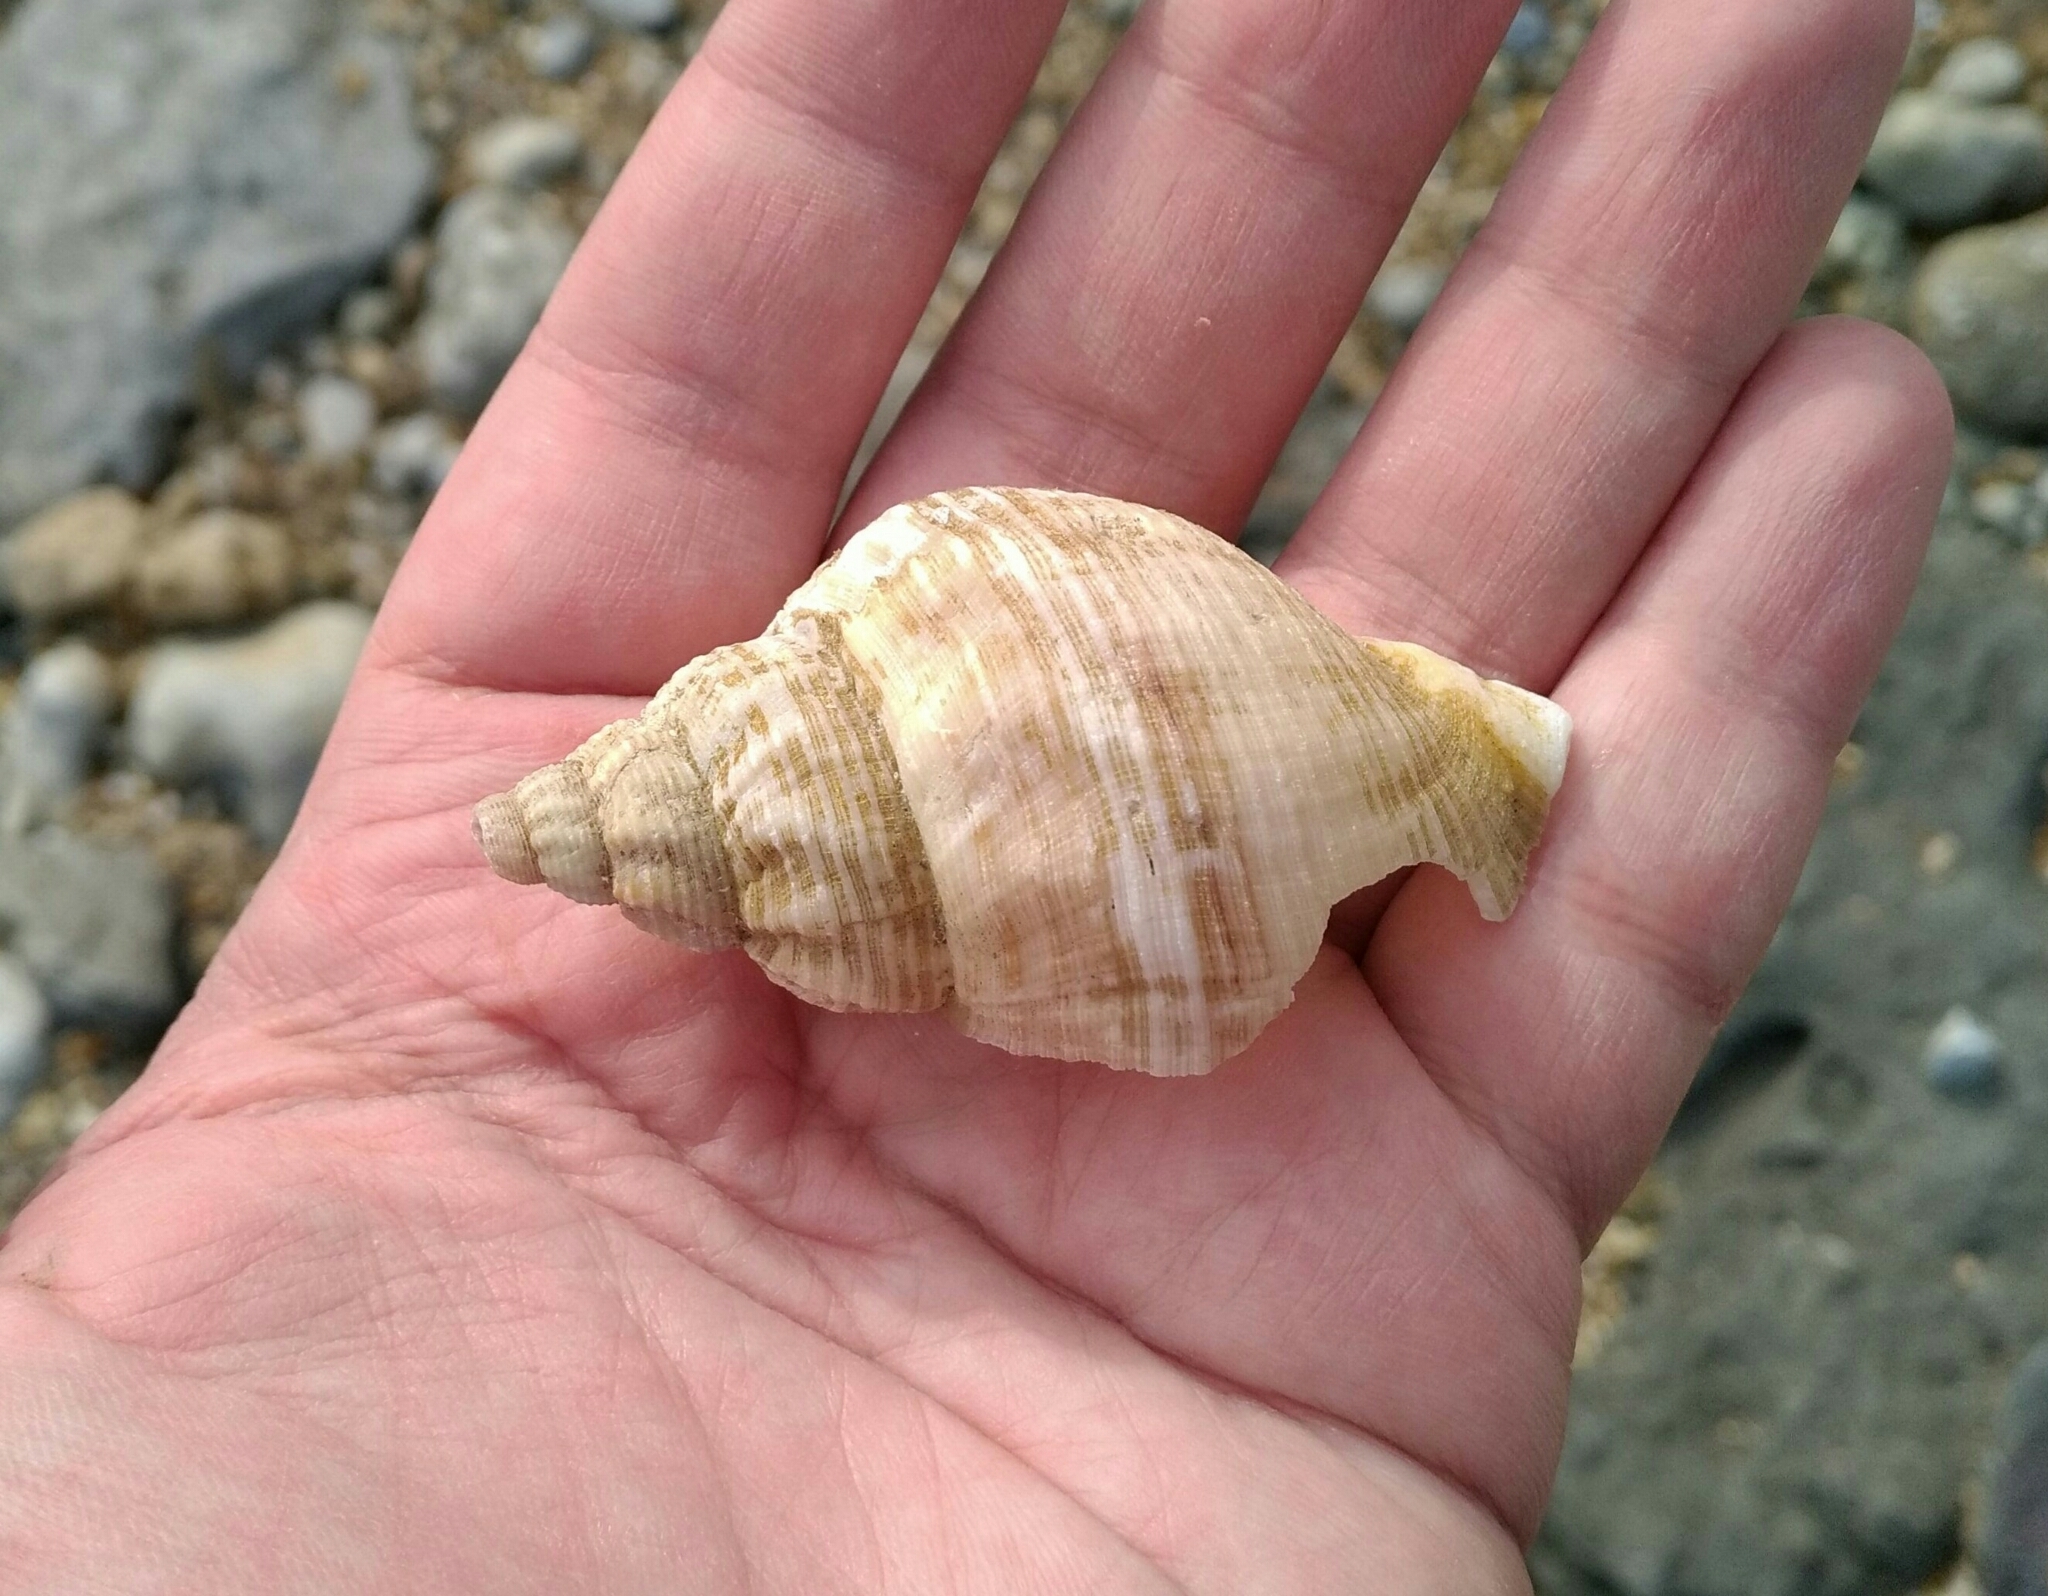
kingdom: Animalia
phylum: Mollusca
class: Gastropoda
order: Neogastropoda
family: Buccinidae
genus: Buccinum
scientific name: Buccinum undatum
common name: Common whelk
